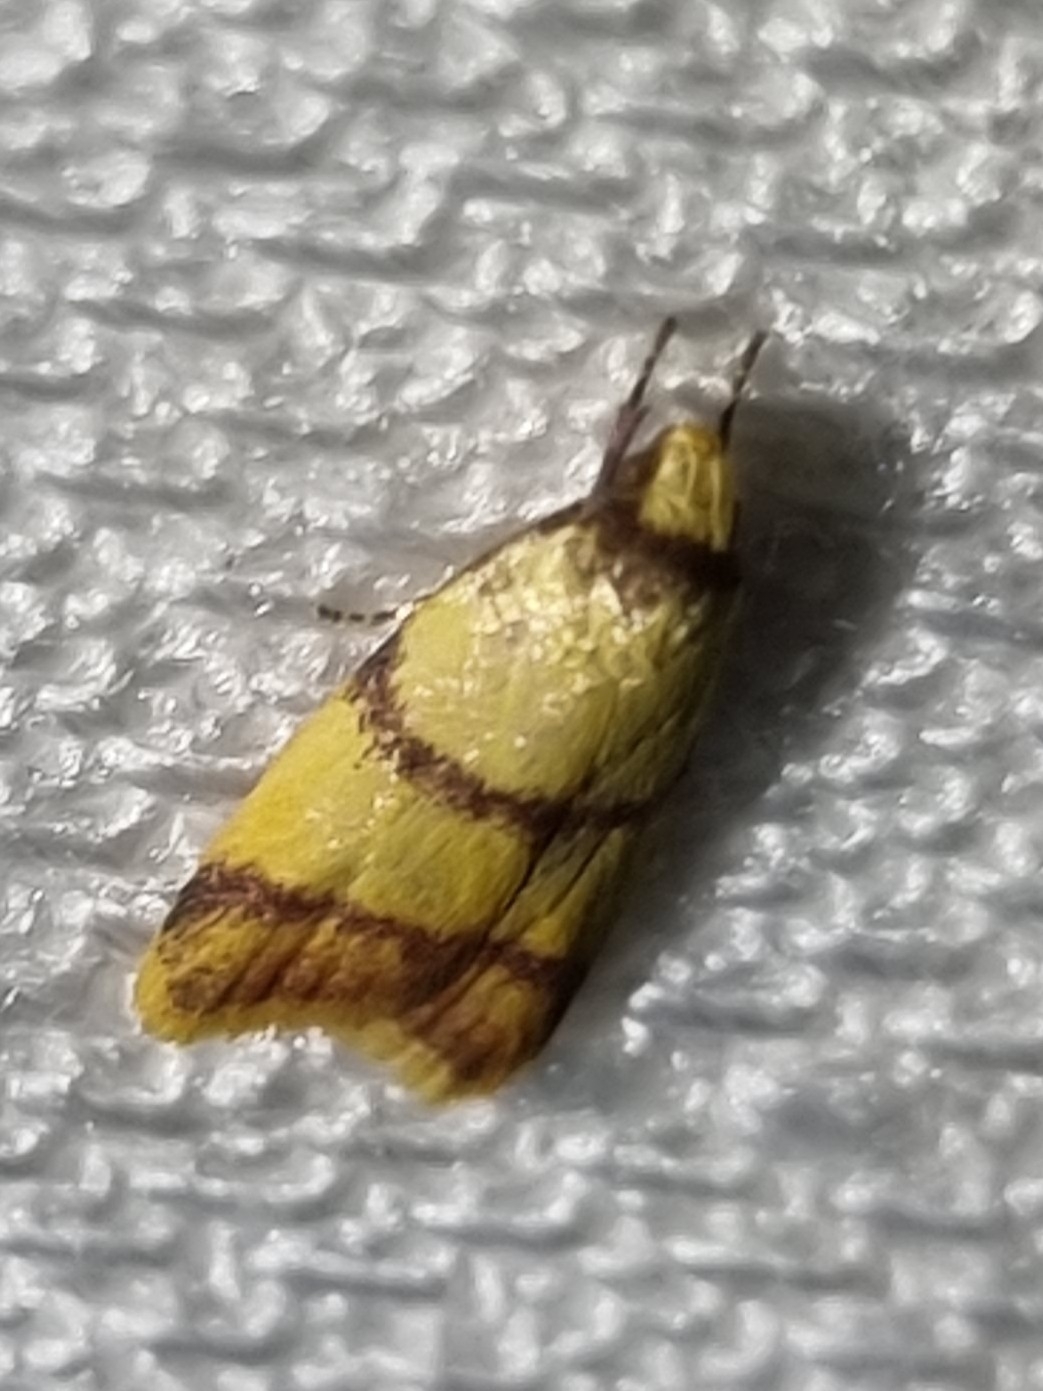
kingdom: Animalia
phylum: Arthropoda
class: Insecta
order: Lepidoptera
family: Oecophoridae
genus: Heteroteucha
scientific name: Heteroteucha translatella
